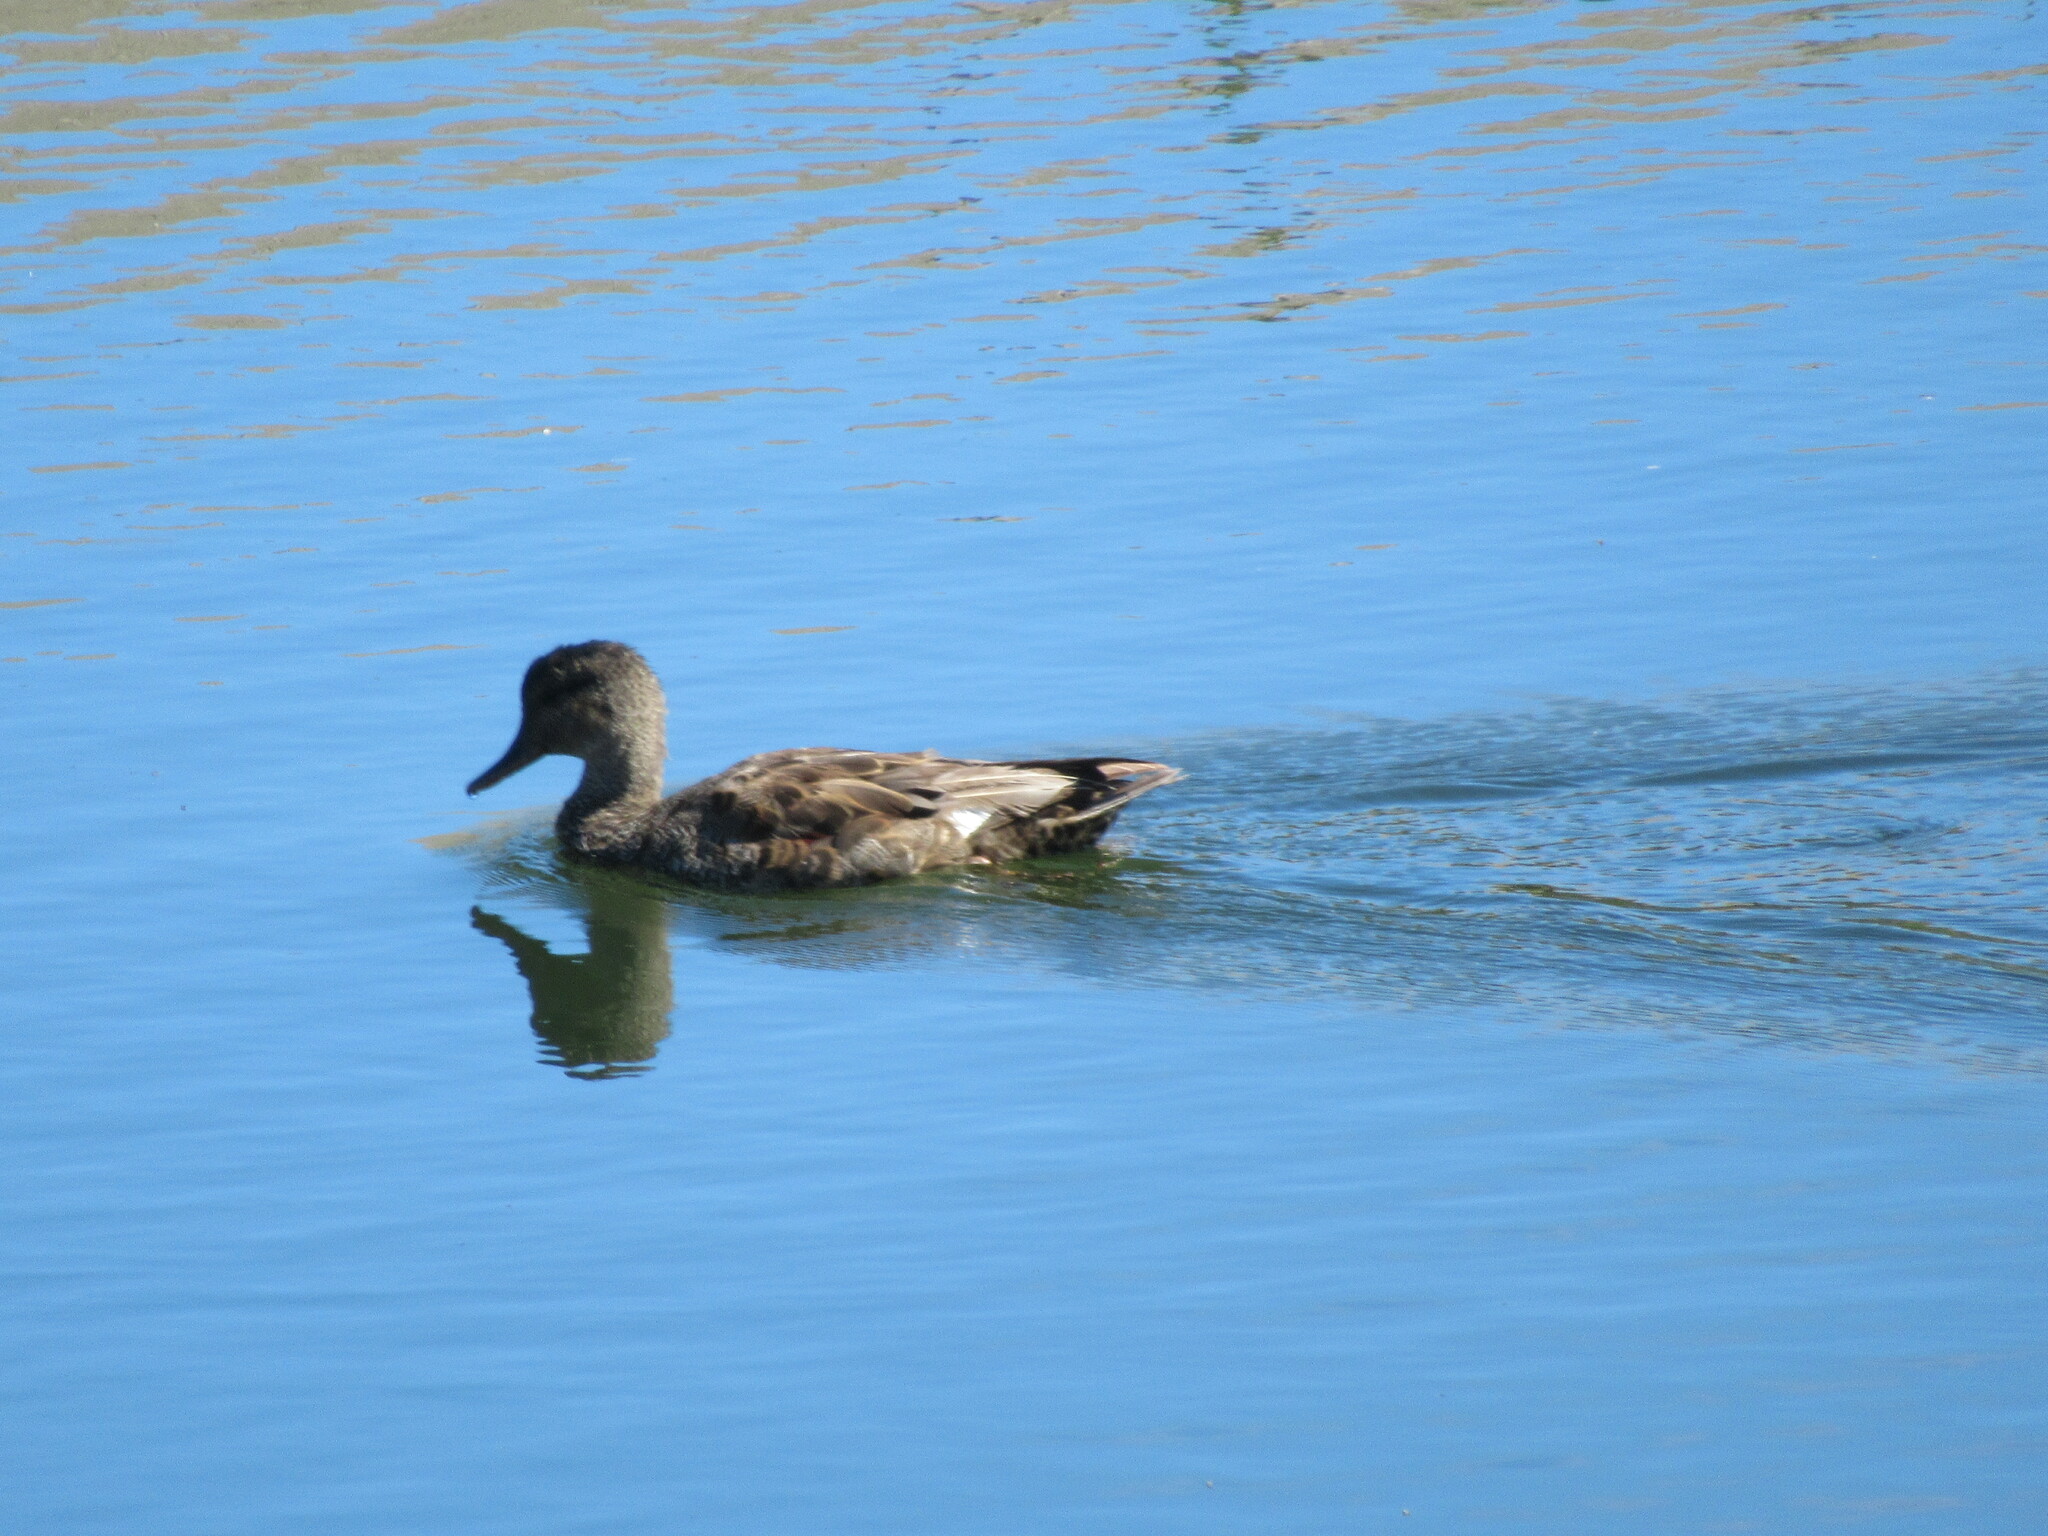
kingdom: Animalia
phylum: Chordata
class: Aves
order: Anseriformes
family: Anatidae
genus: Mareca
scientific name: Mareca strepera
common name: Gadwall
